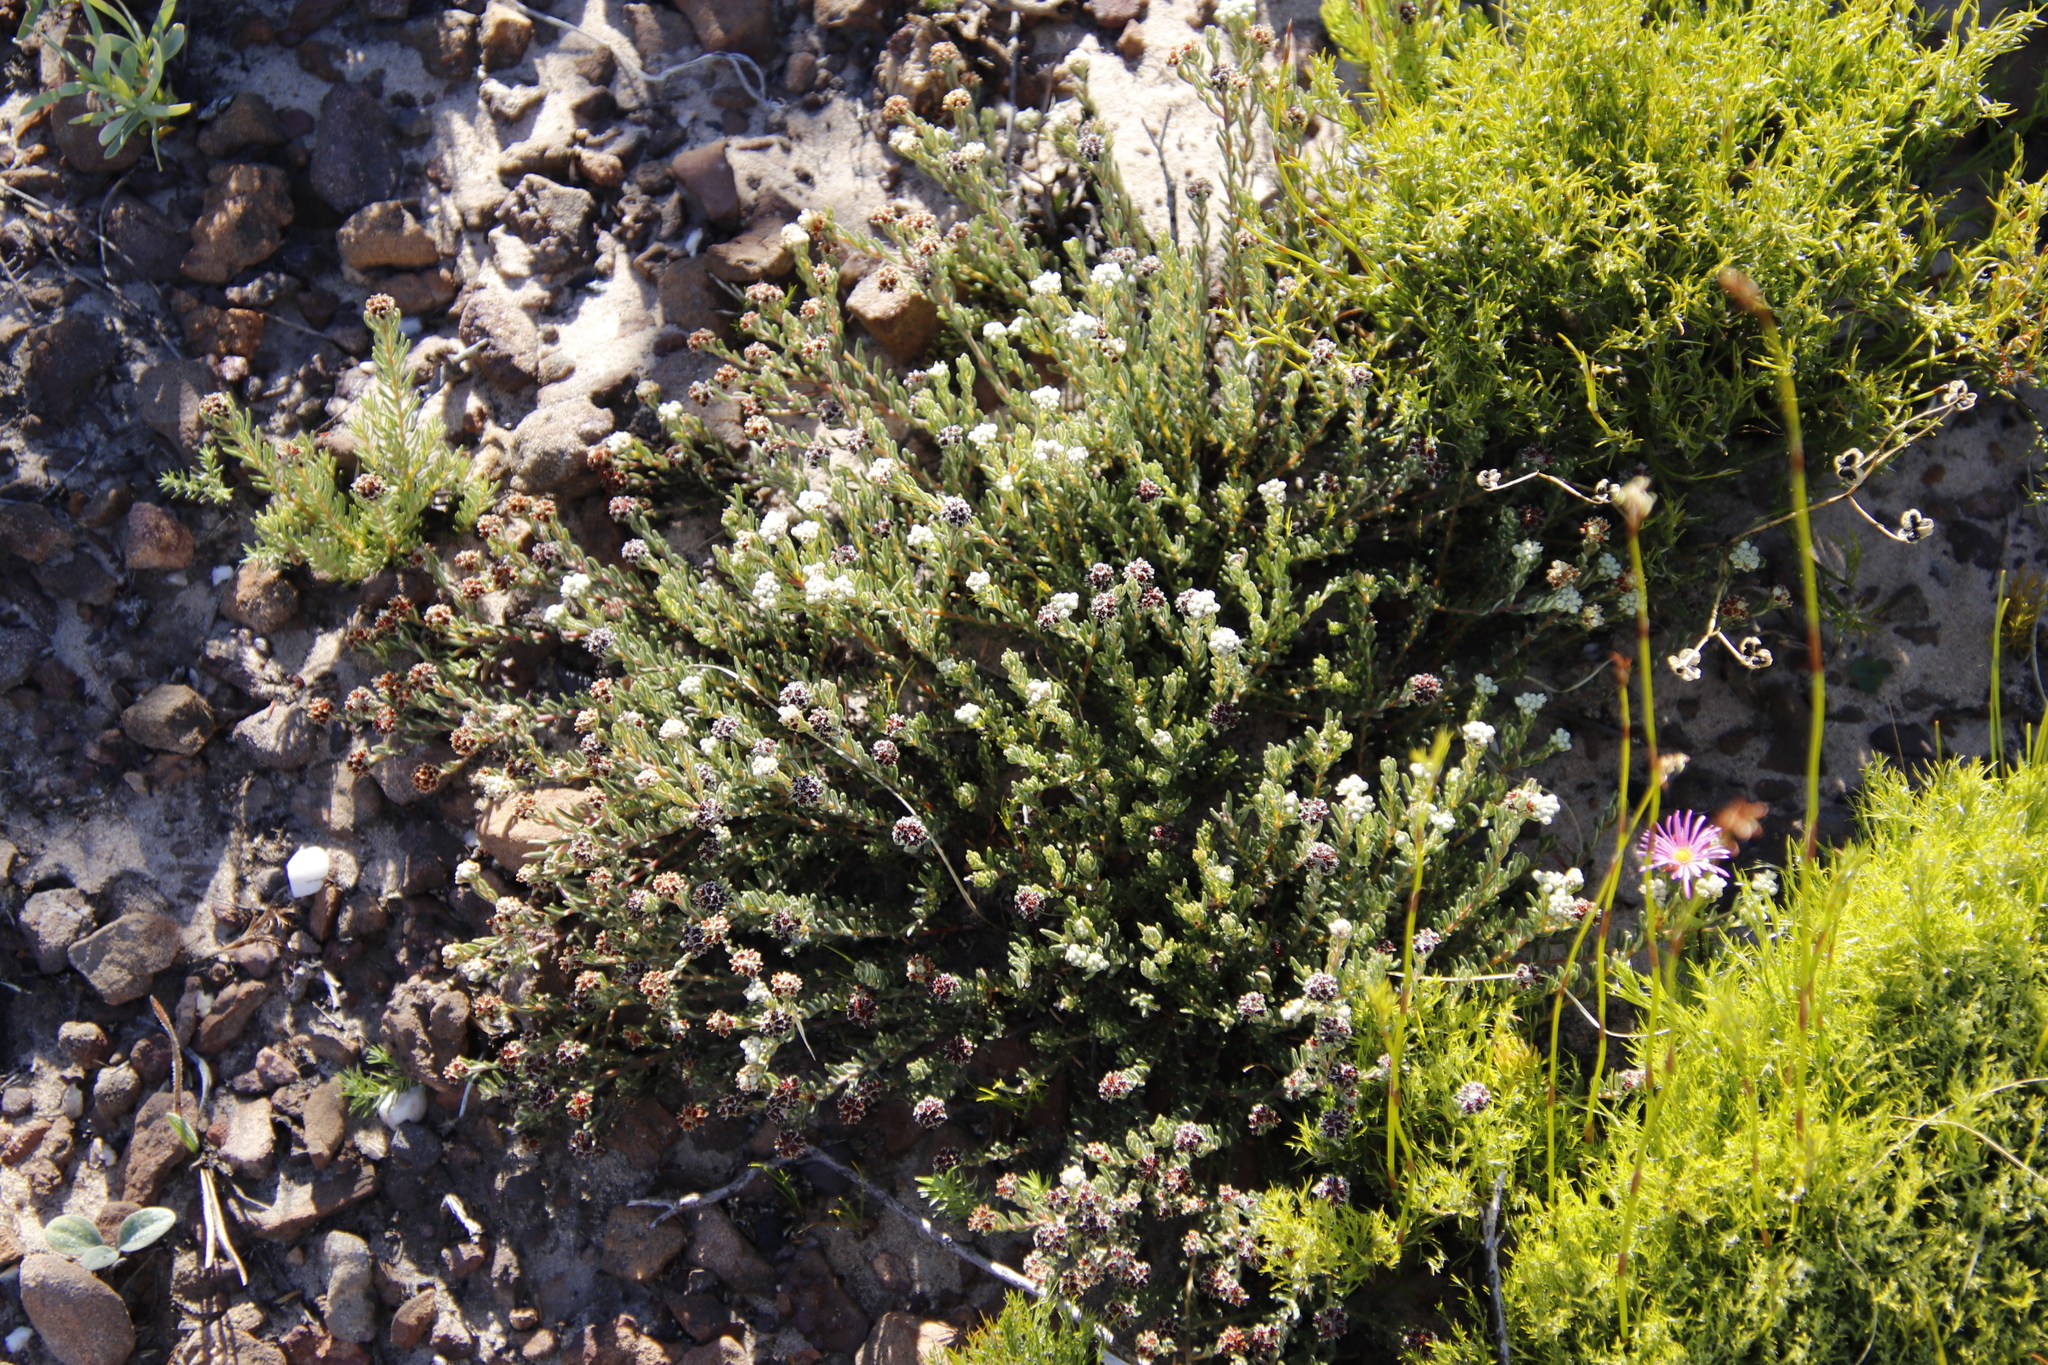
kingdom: Plantae
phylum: Tracheophyta
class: Magnoliopsida
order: Rosales
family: Rhamnaceae
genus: Phylica
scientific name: Phylica imberbis
